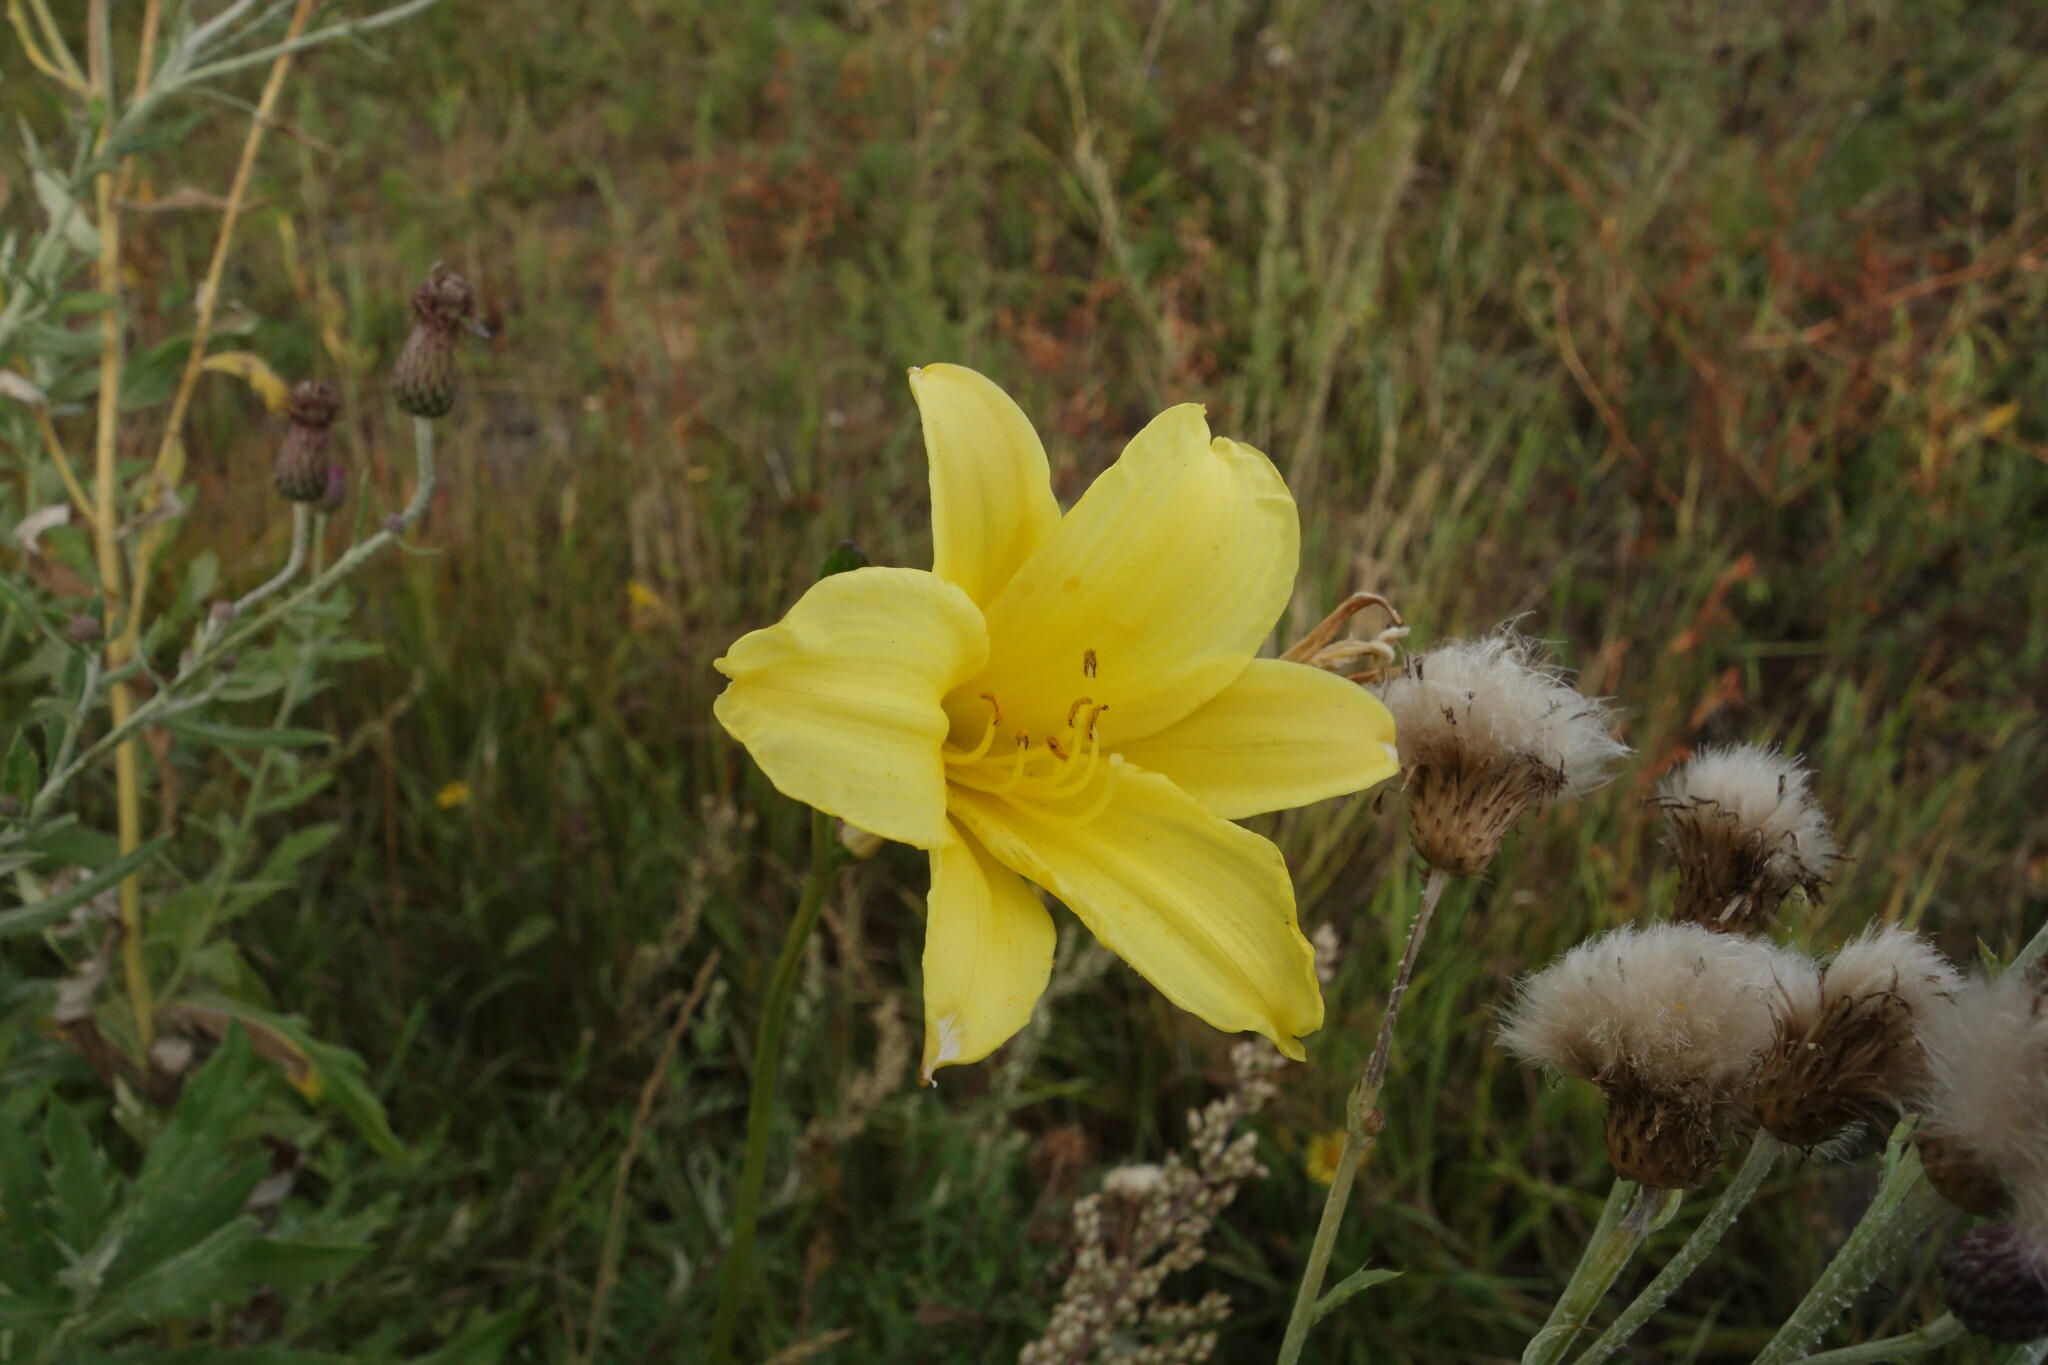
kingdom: Plantae
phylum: Tracheophyta
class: Liliopsida
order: Asparagales
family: Asphodelaceae
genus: Hemerocallis
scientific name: Hemerocallis minor
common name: Small daylily
